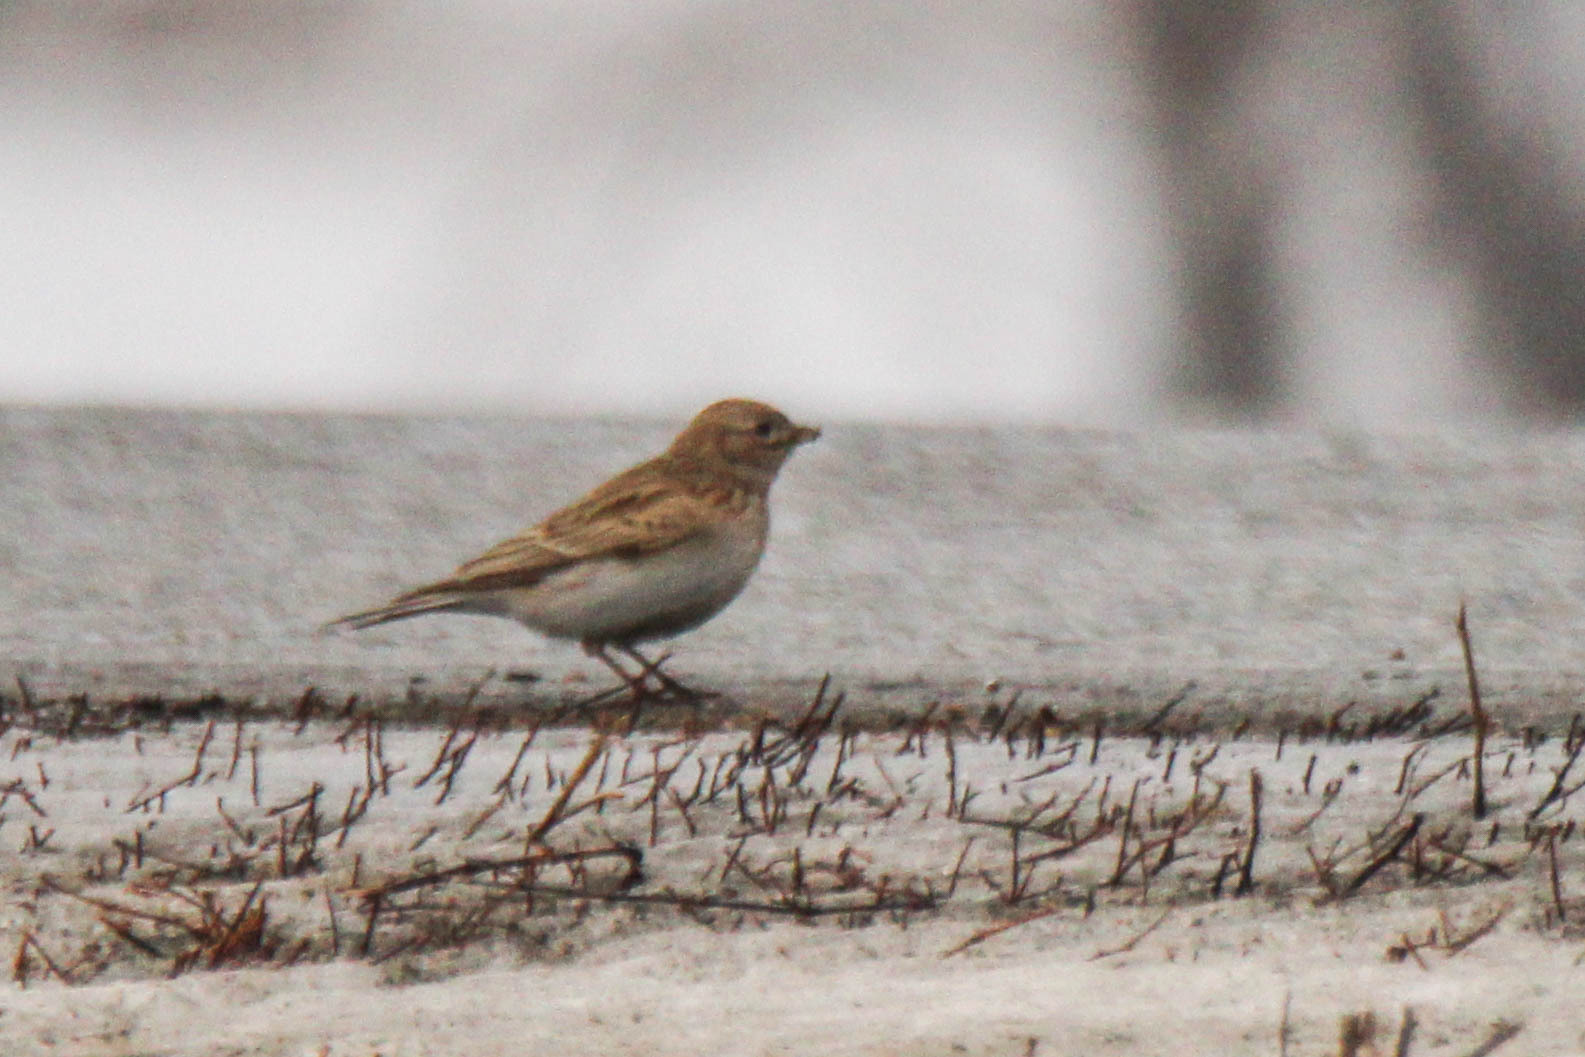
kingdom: Animalia
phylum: Chordata
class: Aves
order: Passeriformes
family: Alaudidae
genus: Calandrella
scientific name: Calandrella rufescens
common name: Lesser short-toed lark
